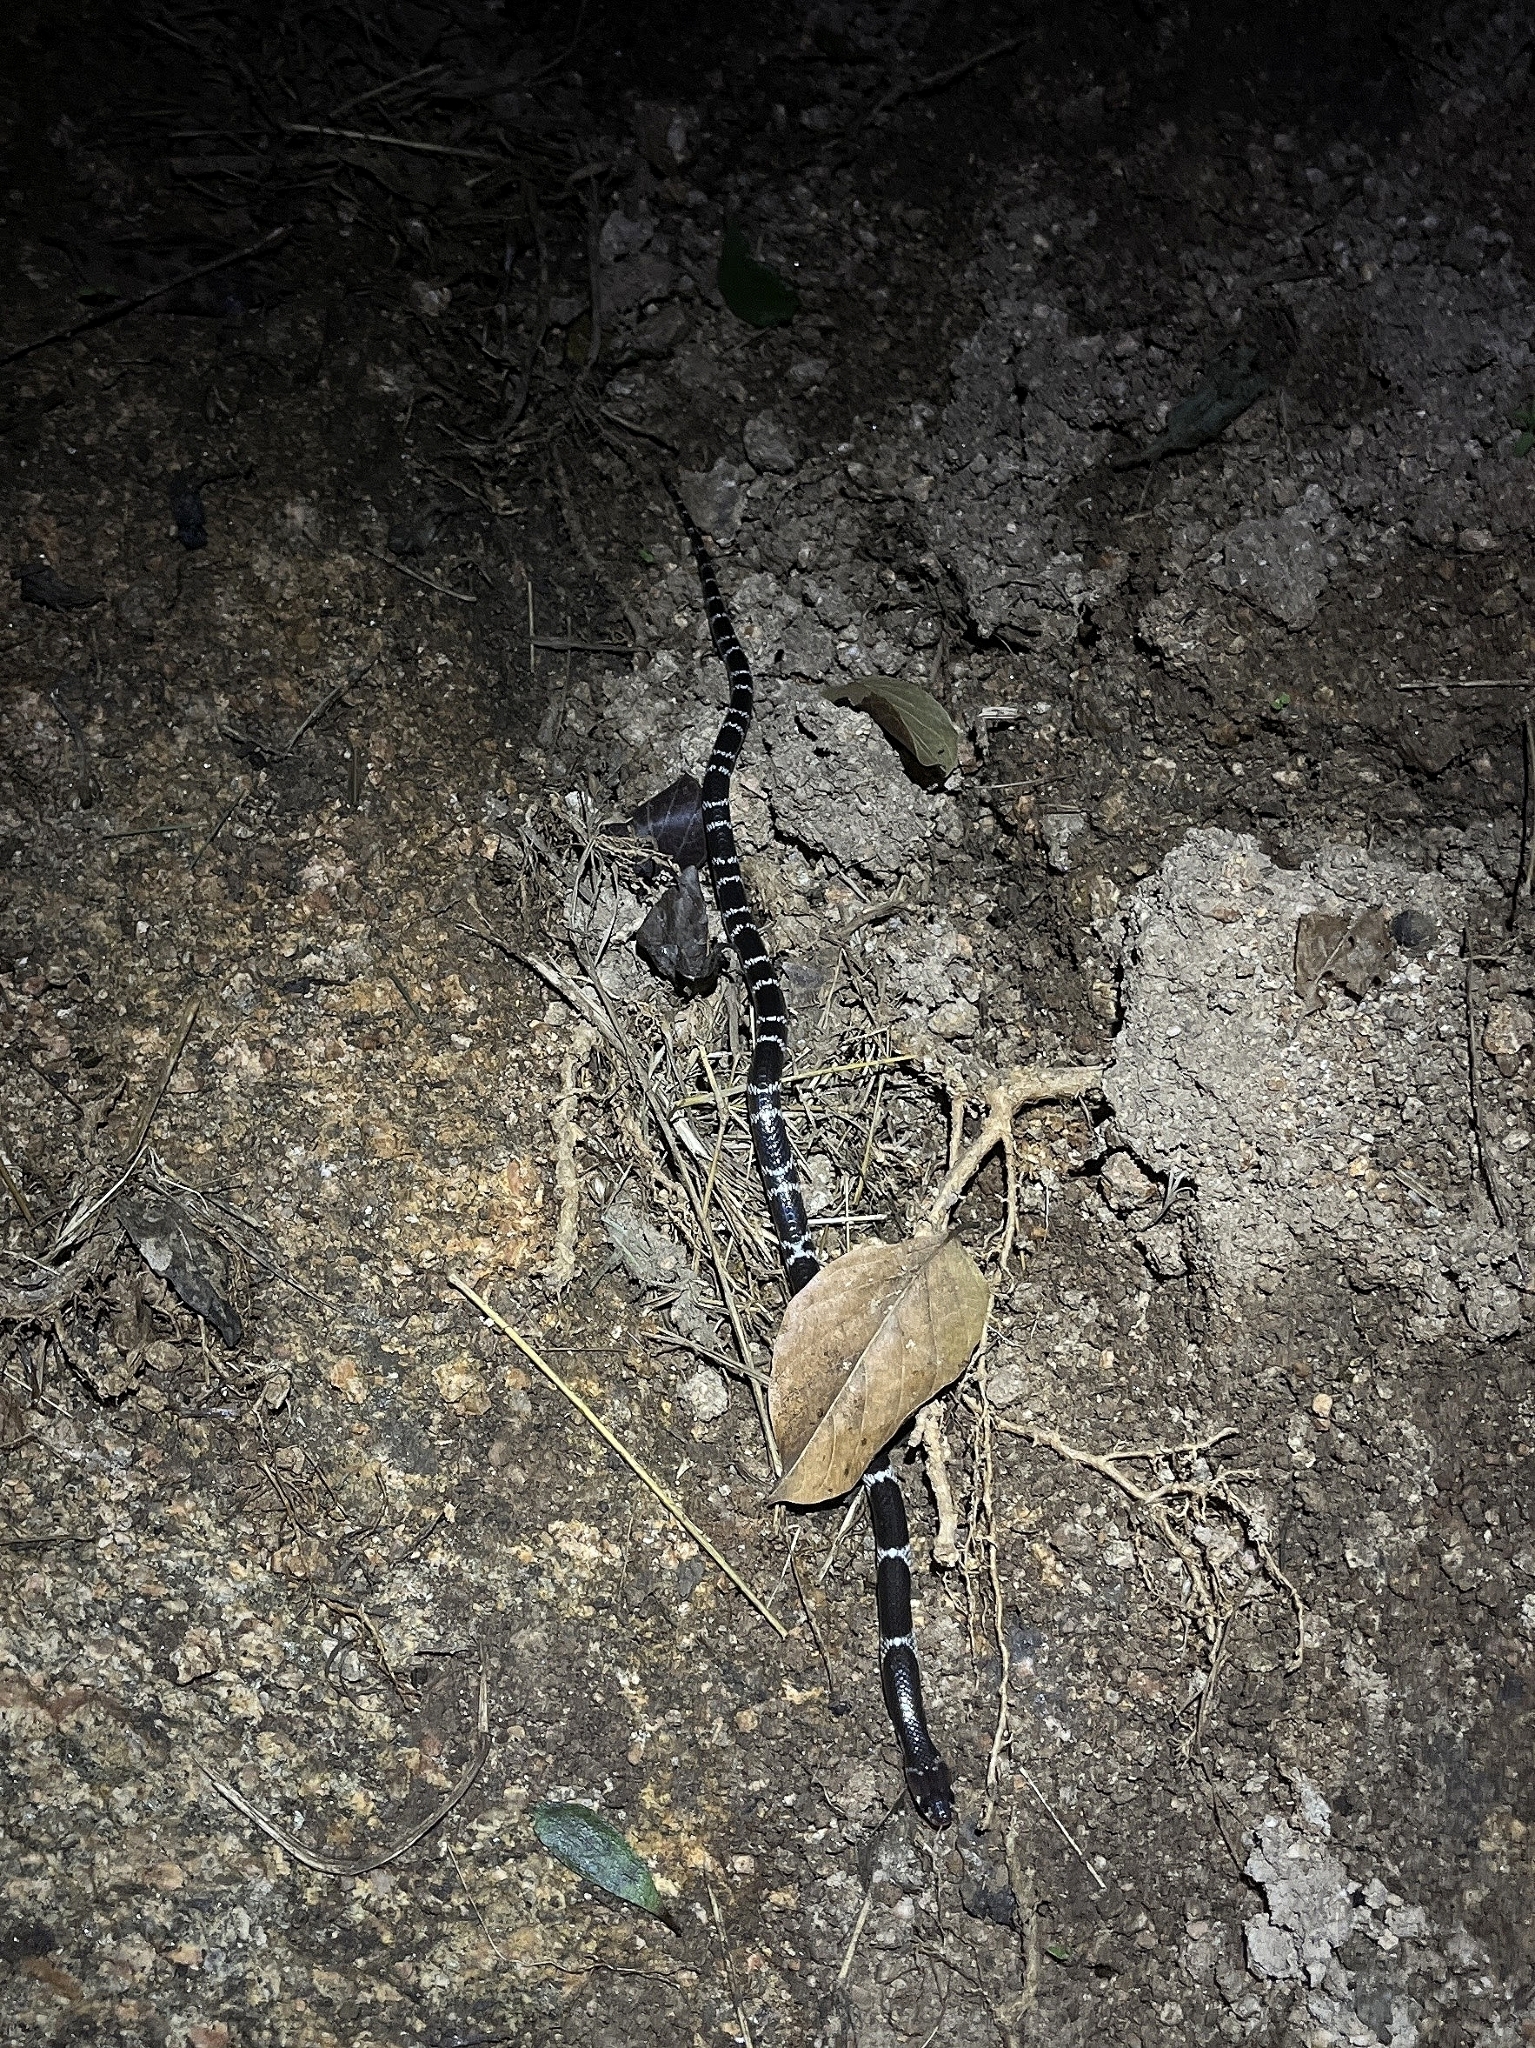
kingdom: Animalia
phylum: Chordata
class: Squamata
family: Elapidae
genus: Bungarus
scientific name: Bungarus caeruleus
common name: Common krait
